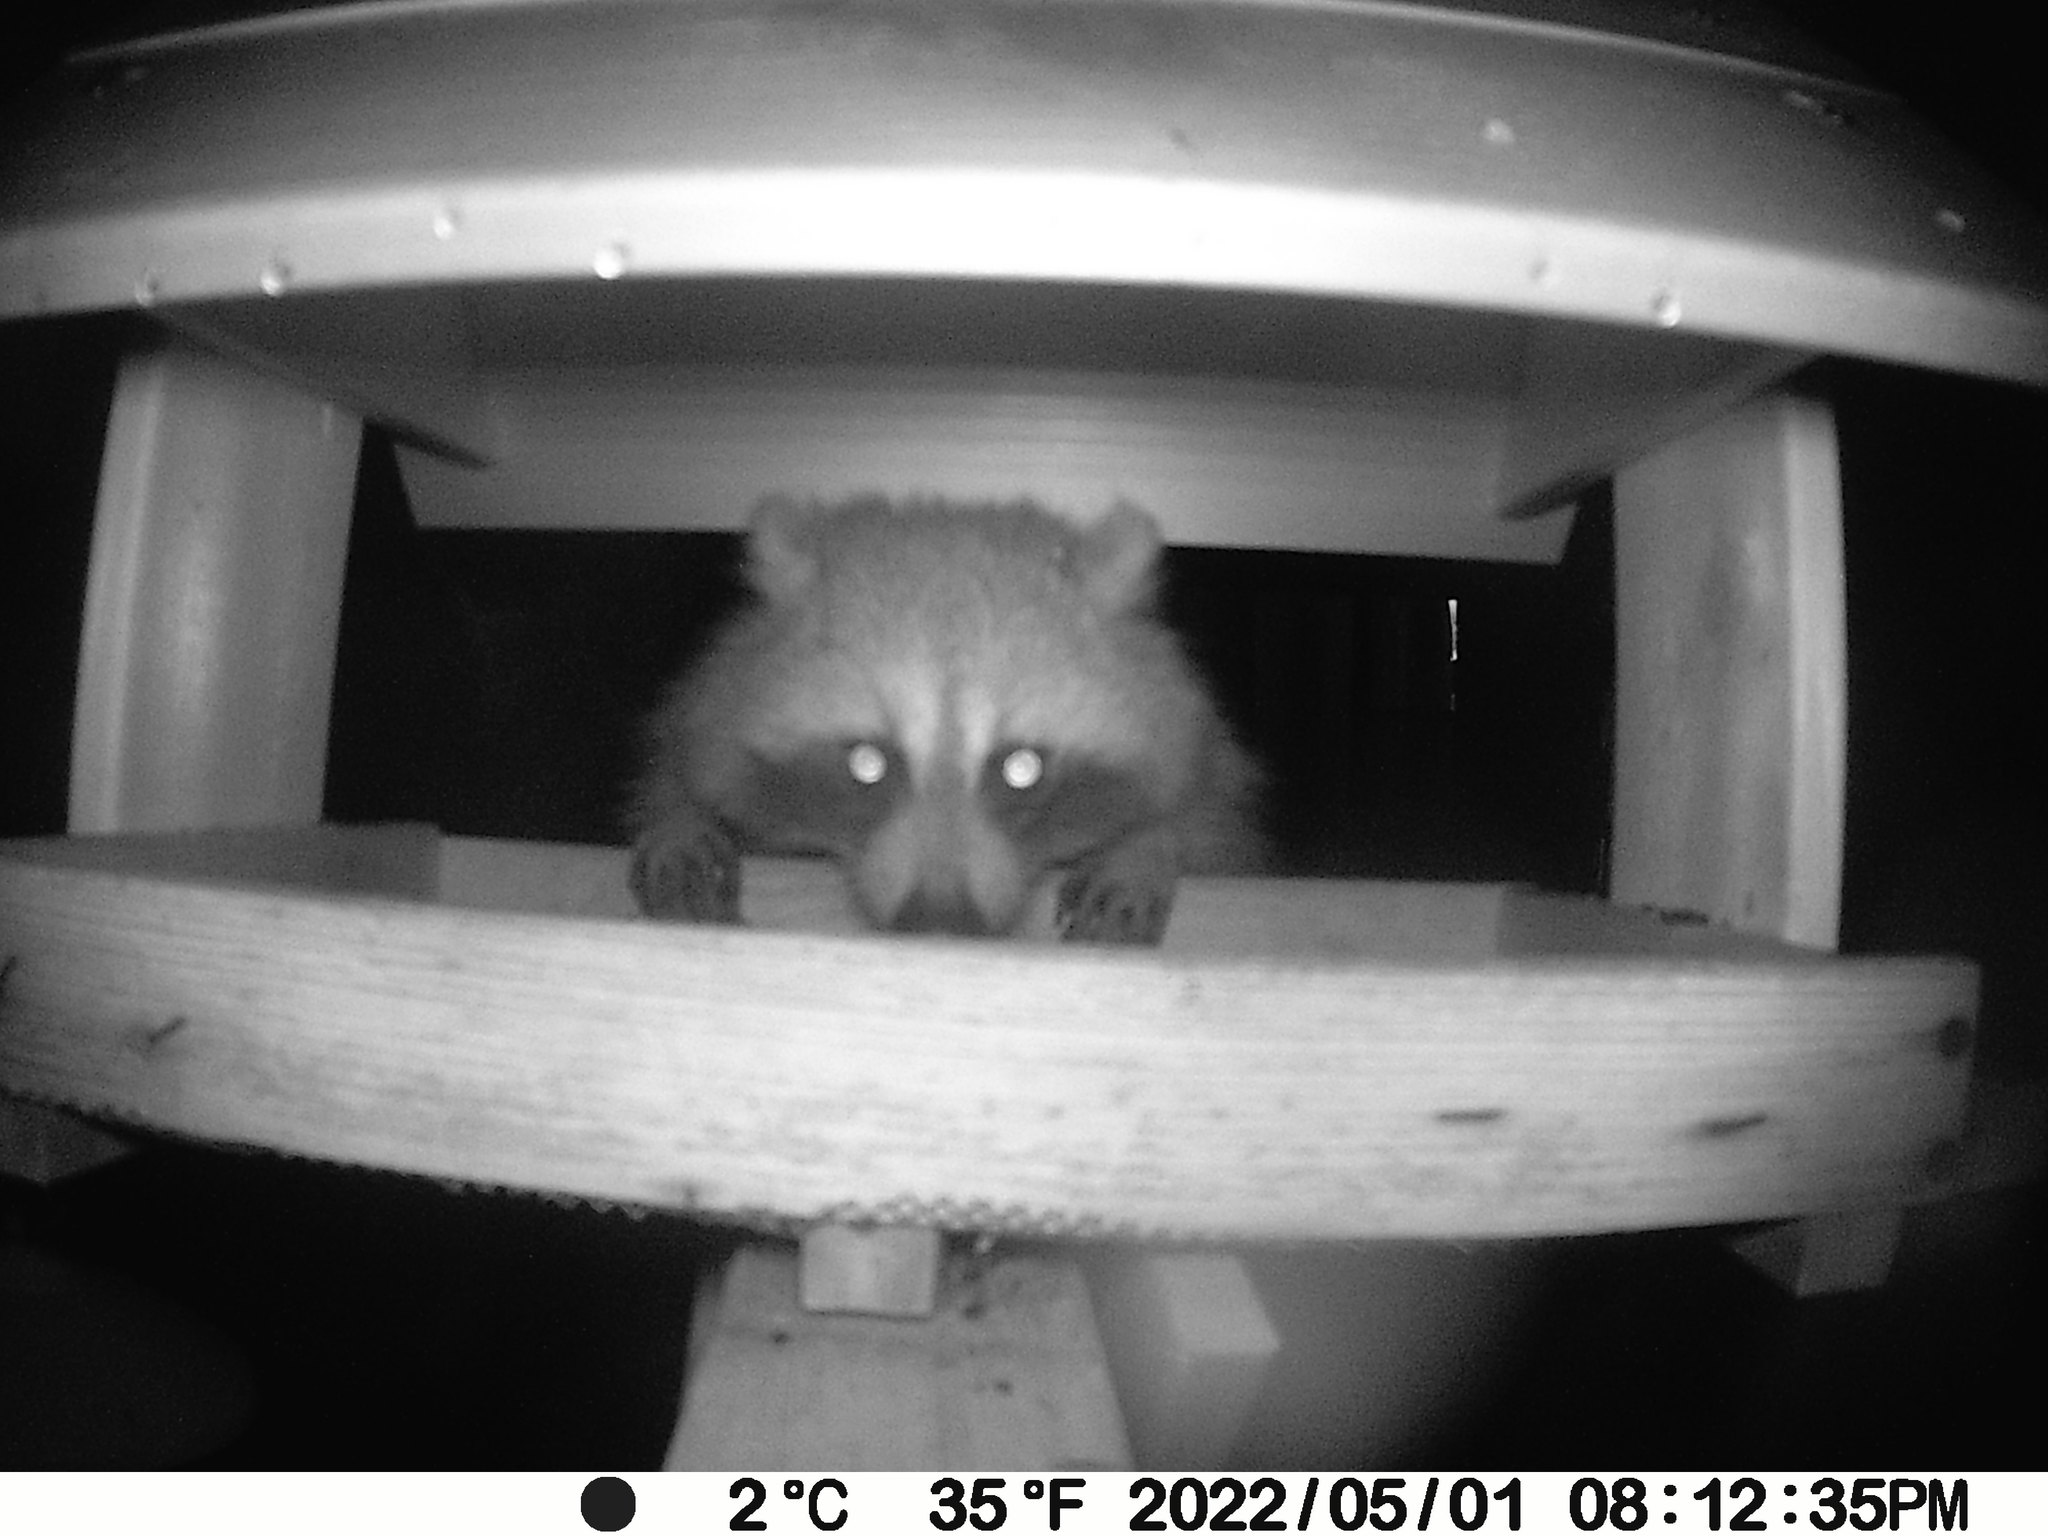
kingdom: Animalia
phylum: Chordata
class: Mammalia
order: Carnivora
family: Procyonidae
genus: Procyon
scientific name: Procyon lotor
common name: Raccoon
